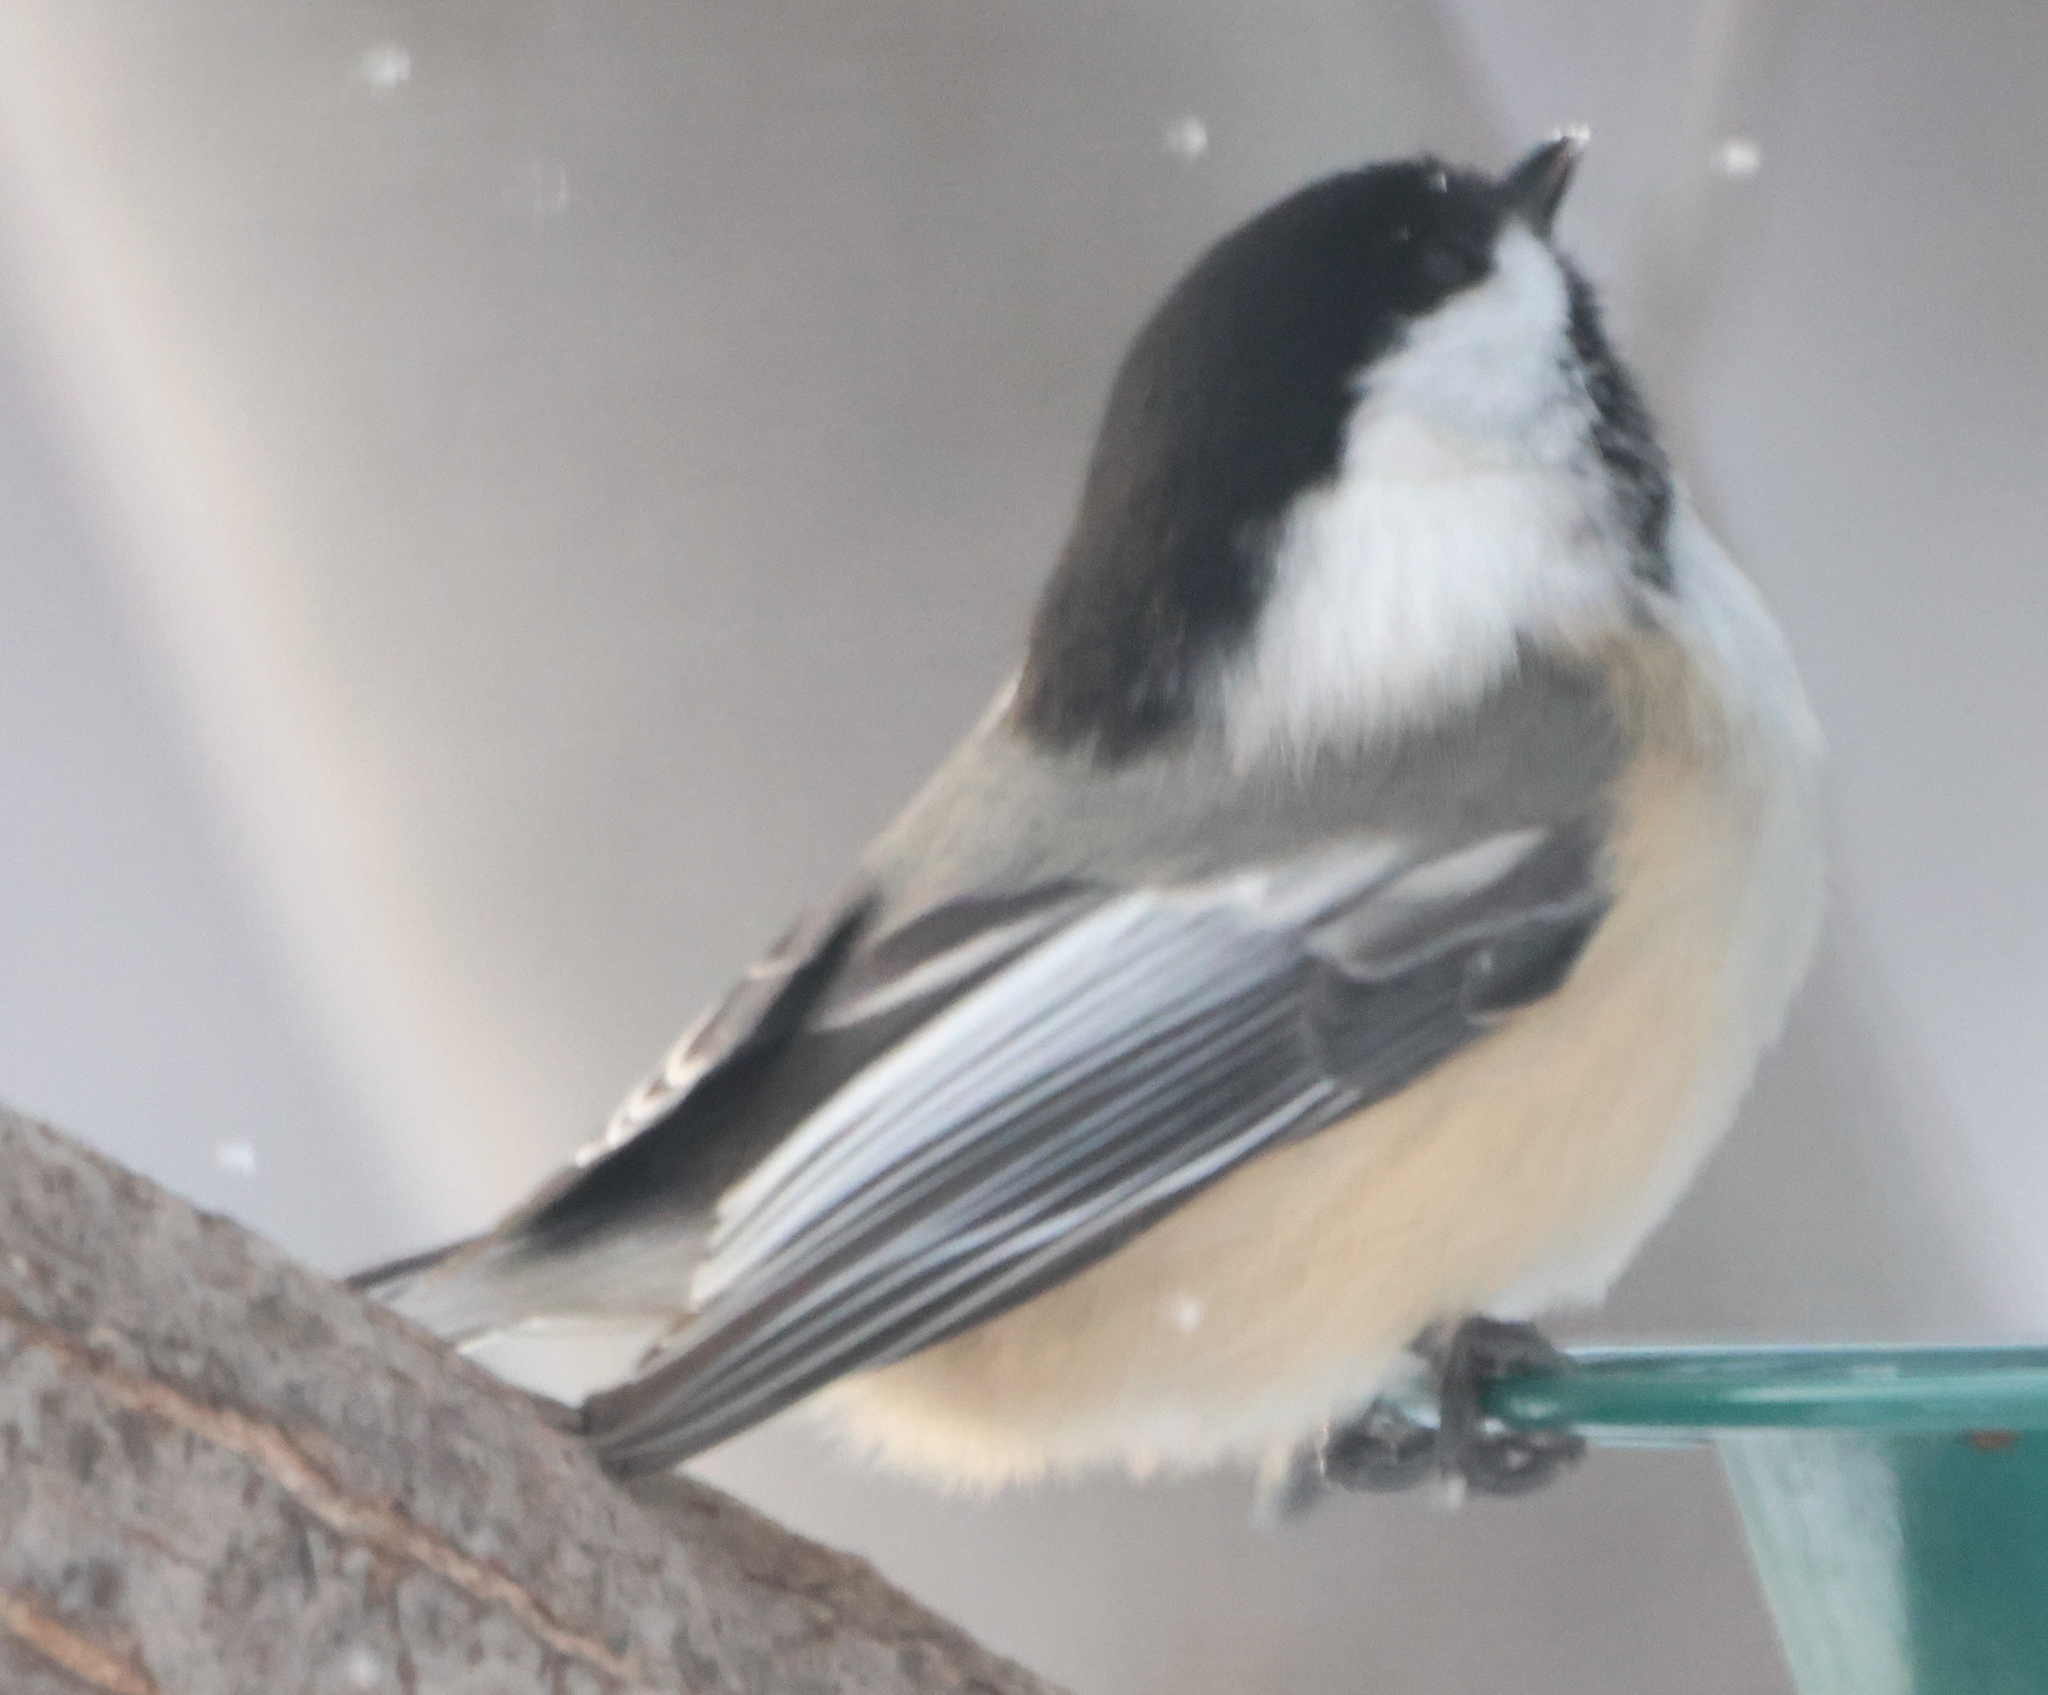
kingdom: Animalia
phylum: Chordata
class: Aves
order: Passeriformes
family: Paridae
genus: Poecile
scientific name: Poecile atricapillus
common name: Black-capped chickadee
